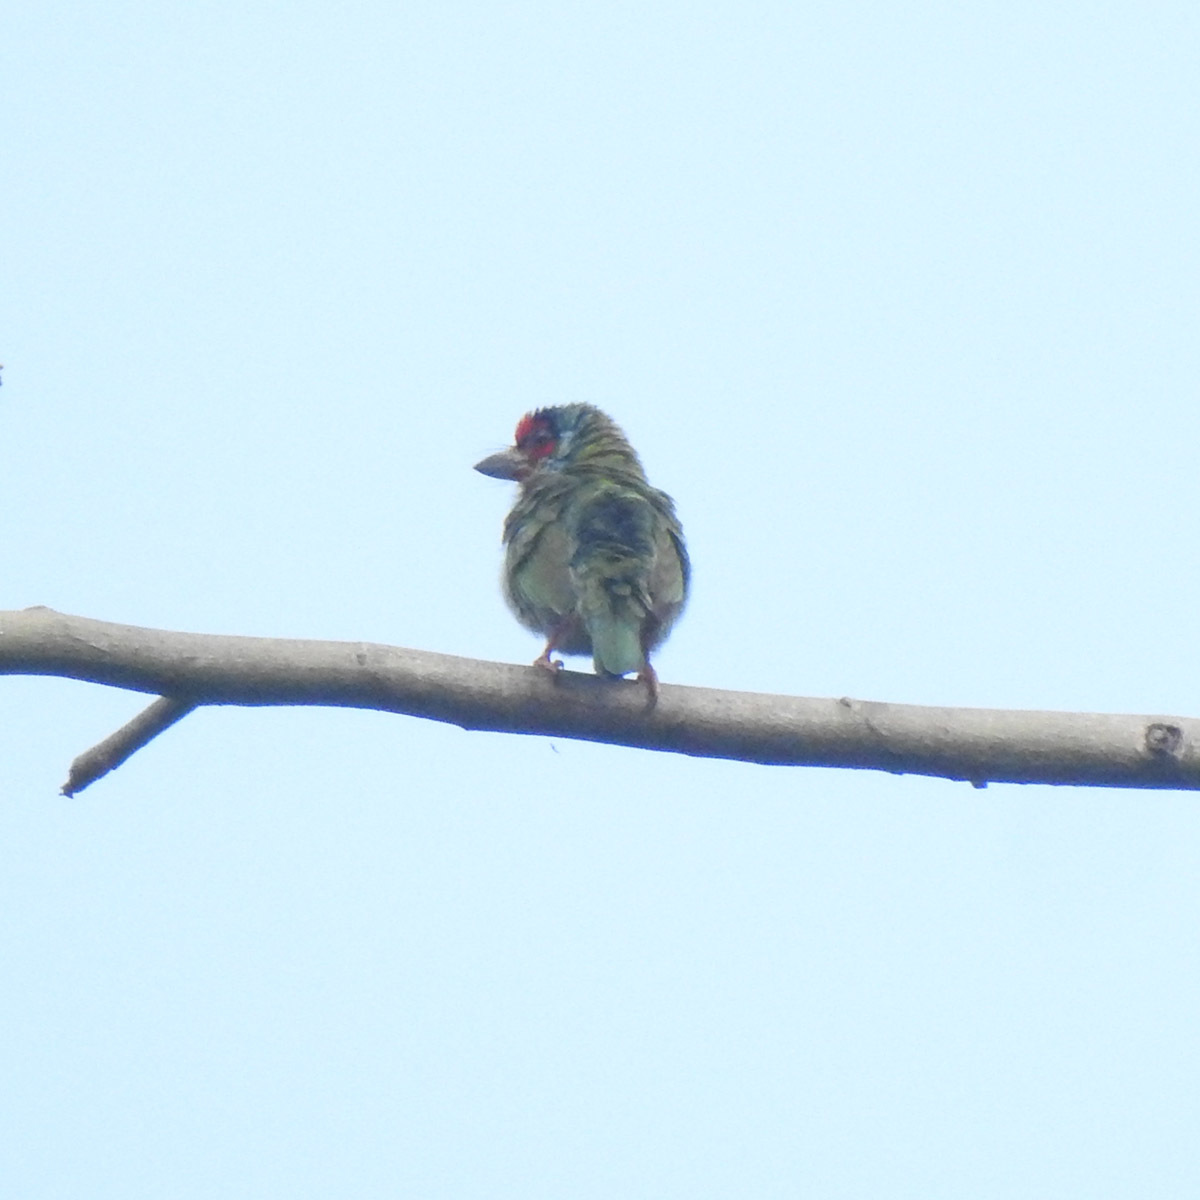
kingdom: Animalia
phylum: Chordata
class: Aves
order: Piciformes
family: Megalaimidae
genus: Psilopogon
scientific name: Psilopogon malabaricus
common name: Malabar barbet
